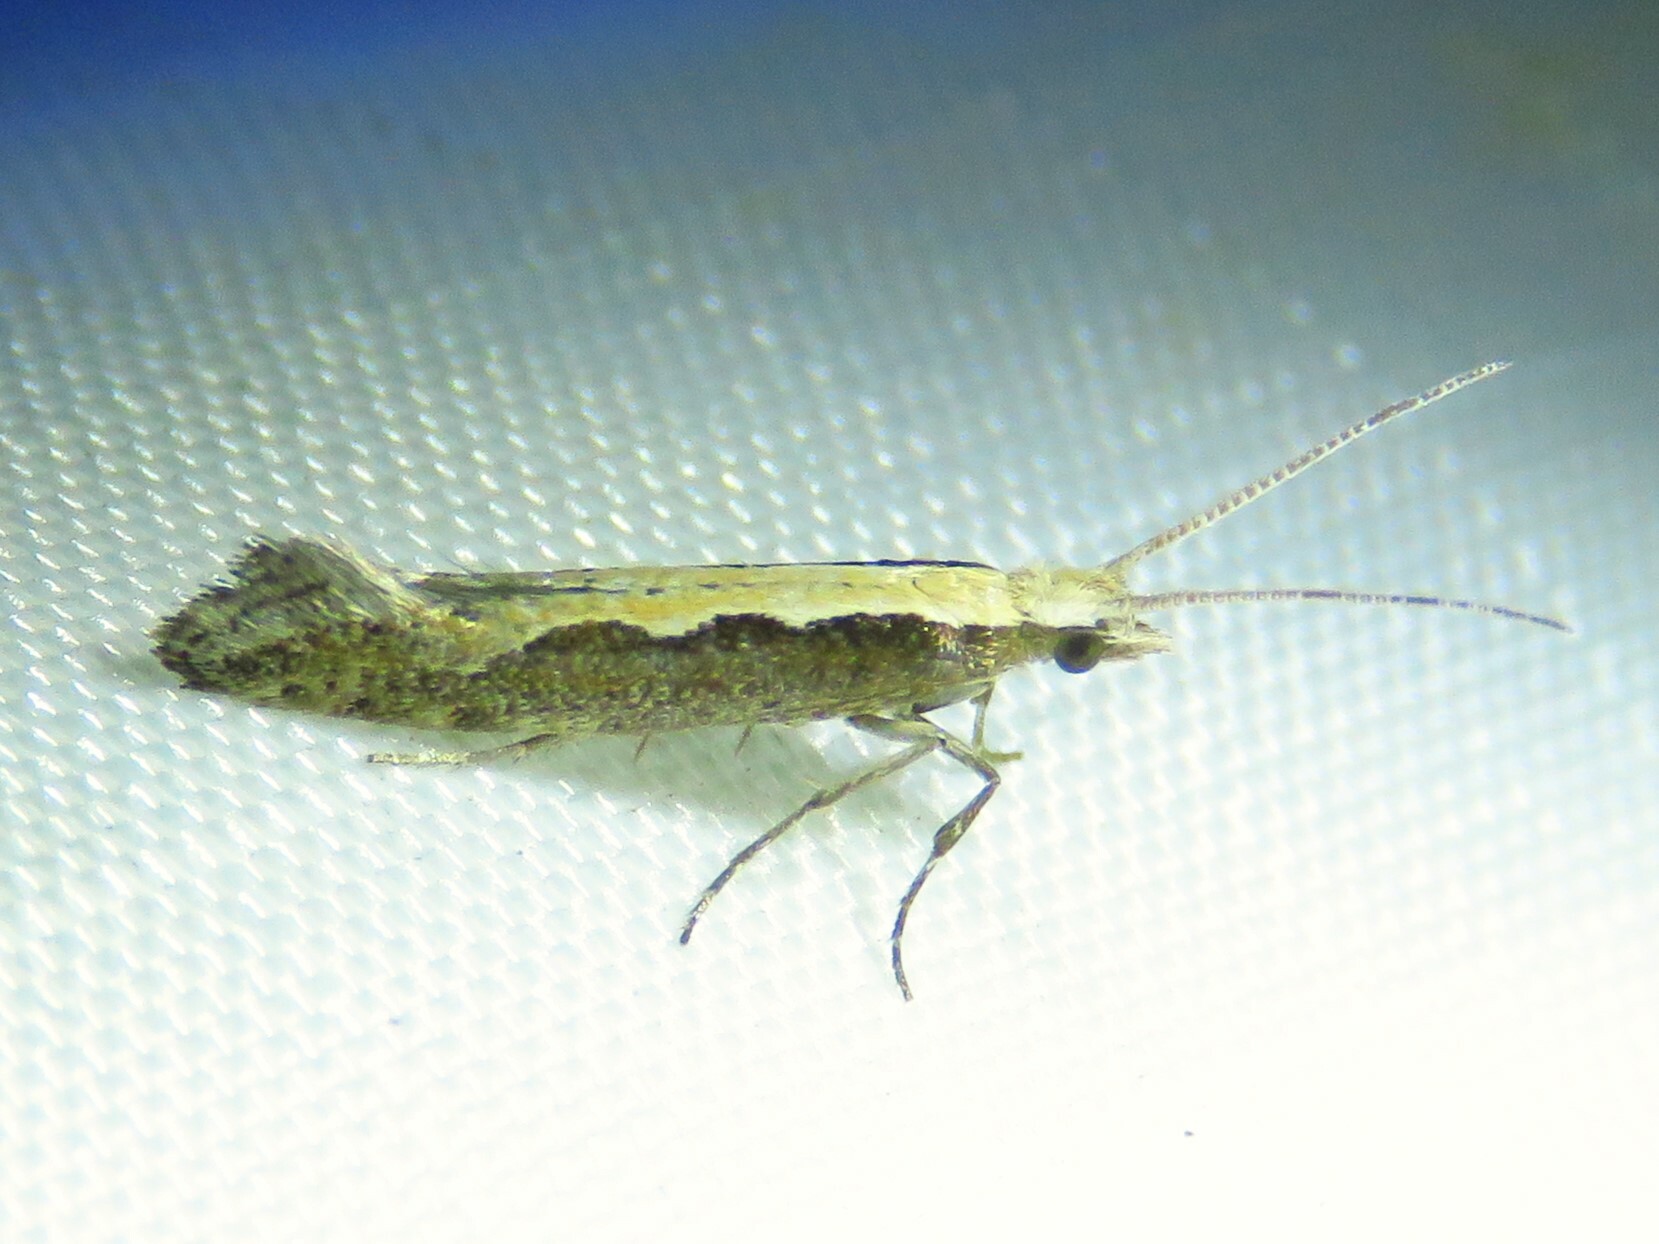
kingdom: Animalia
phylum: Arthropoda
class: Insecta
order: Lepidoptera
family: Plutellidae
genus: Plutella
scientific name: Plutella xylostella
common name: Diamond-back moth
